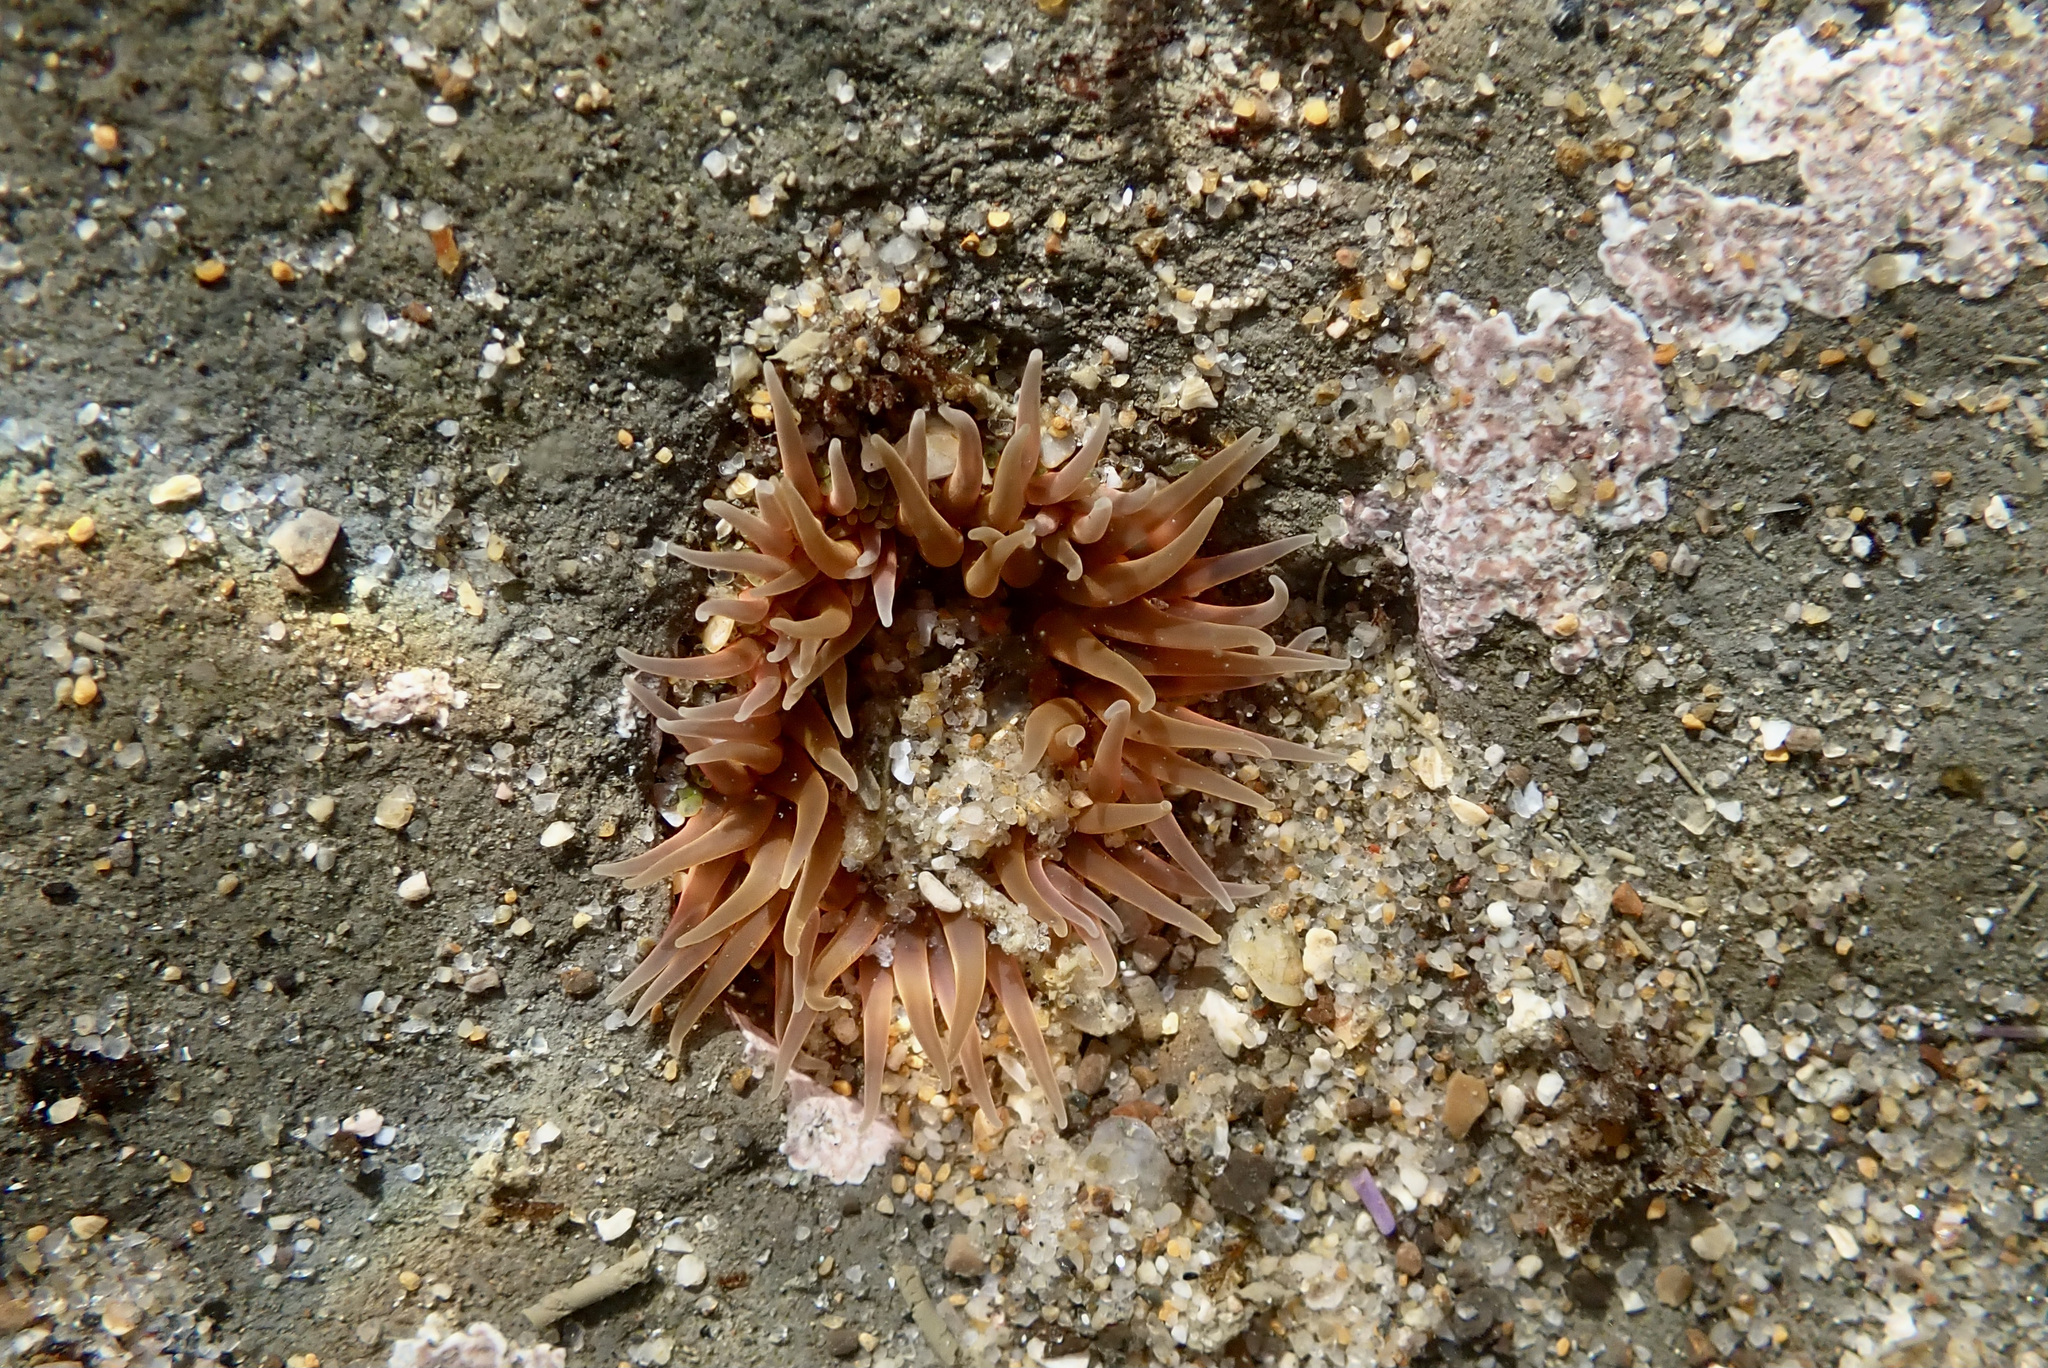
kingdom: Animalia
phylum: Cnidaria
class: Anthozoa
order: Actiniaria
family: Actiniidae
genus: Anthopleura
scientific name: Anthopleura artemisia
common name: Buried sea anemone
